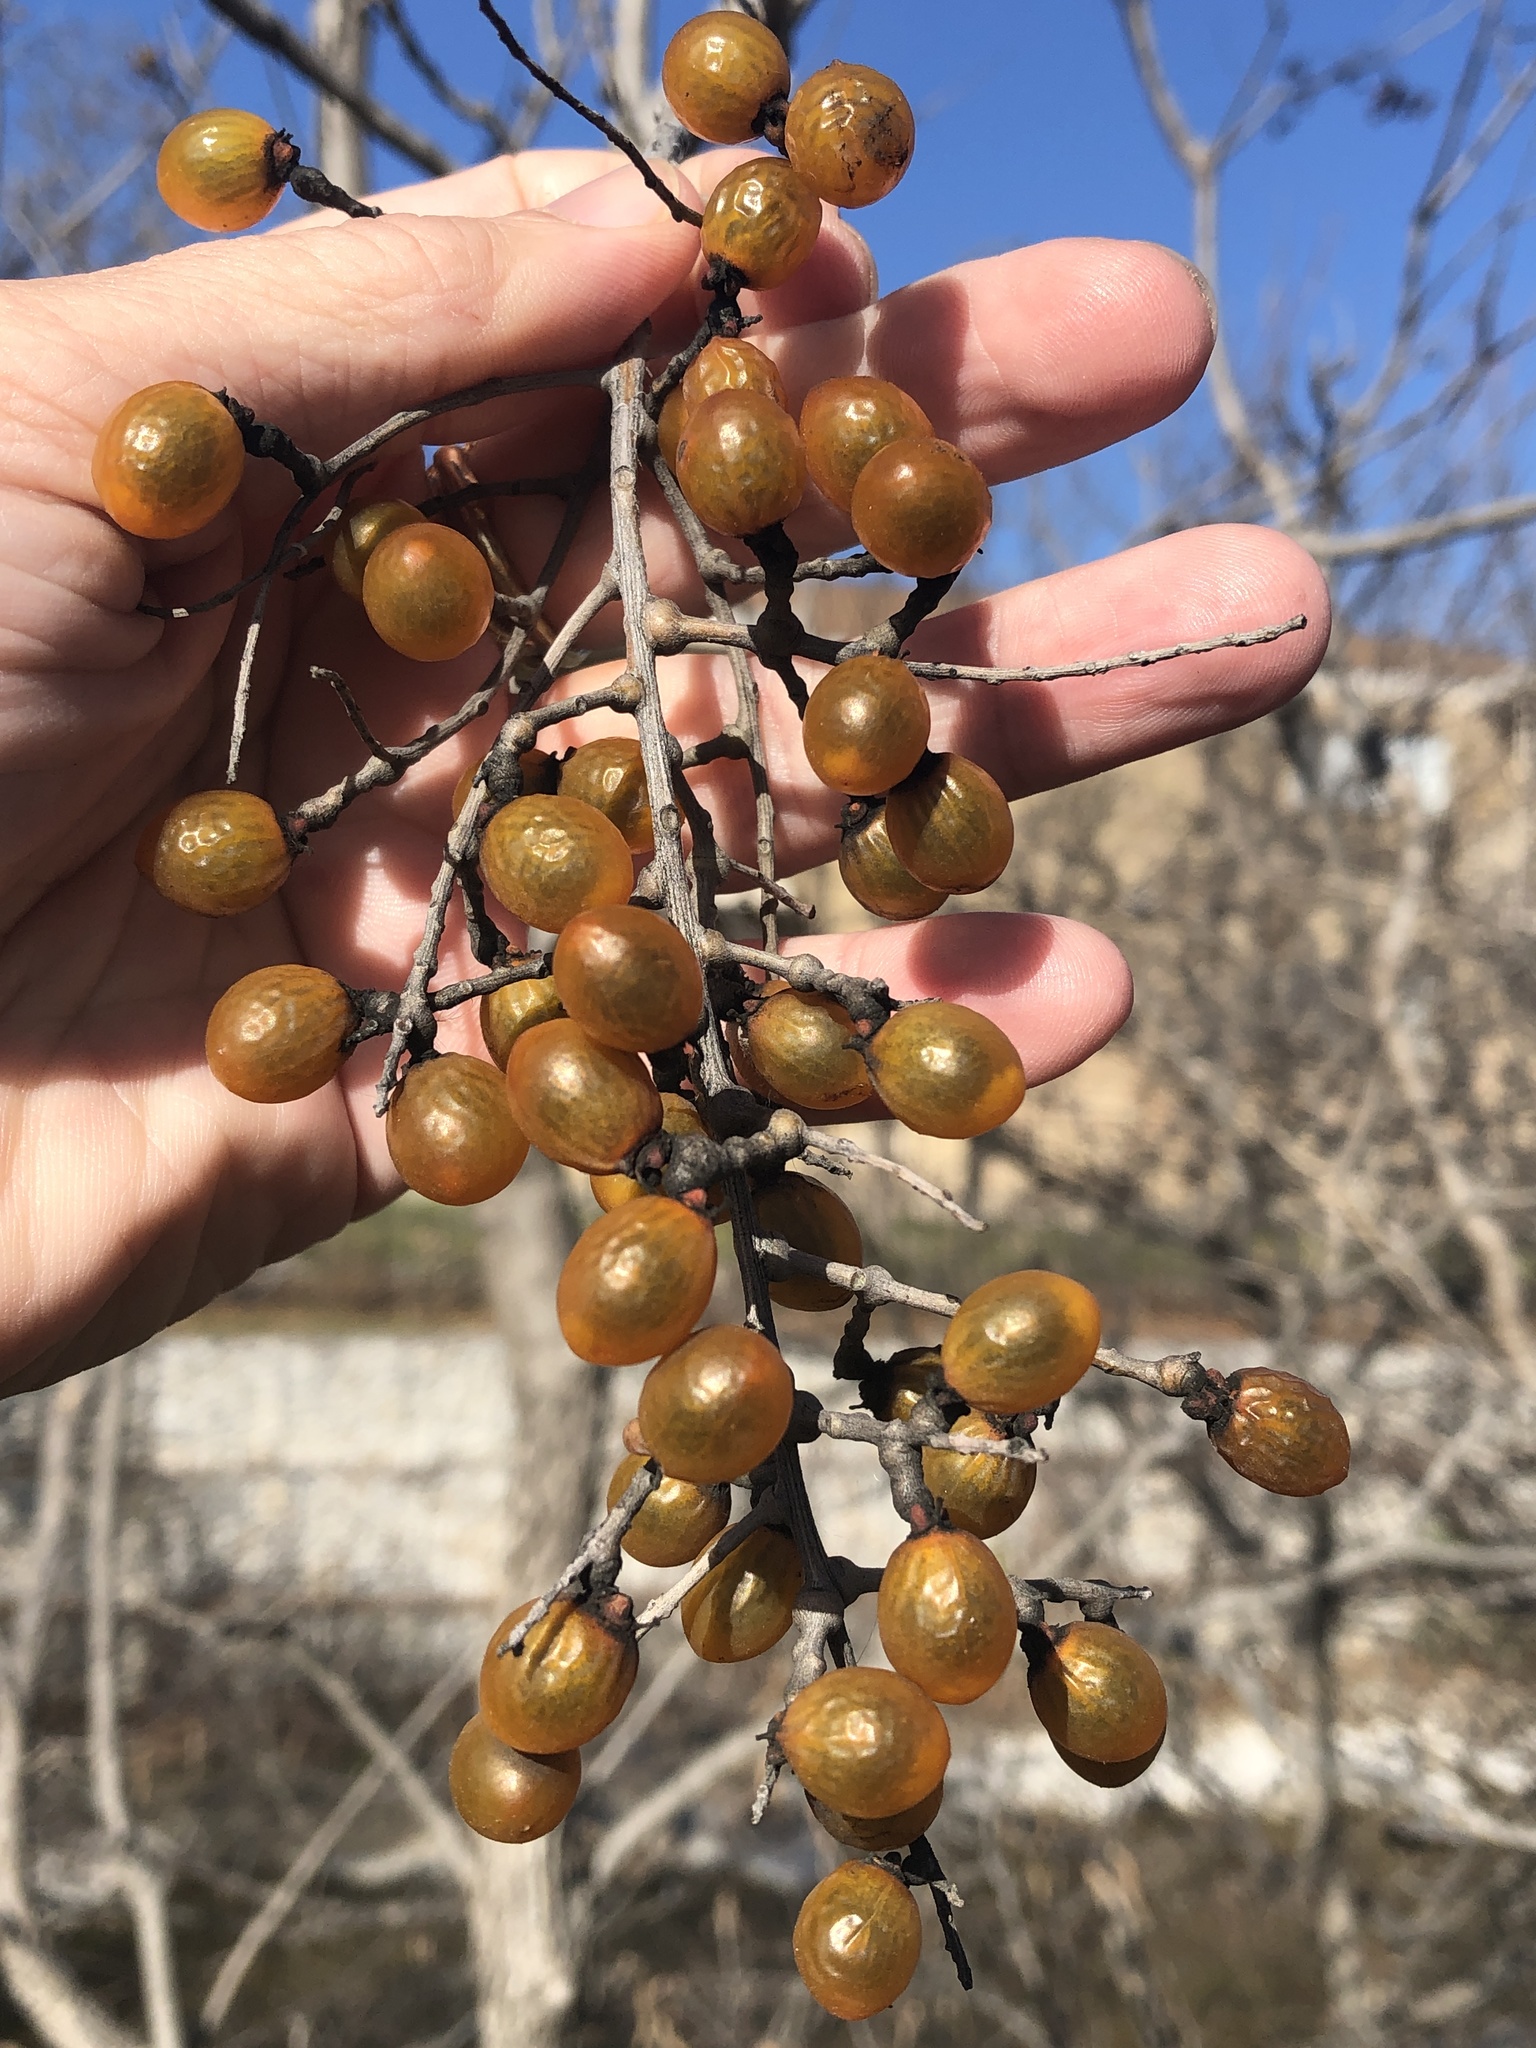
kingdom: Plantae
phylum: Tracheophyta
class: Magnoliopsida
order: Sapindales
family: Sapindaceae
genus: Sapindus
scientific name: Sapindus drummondii
